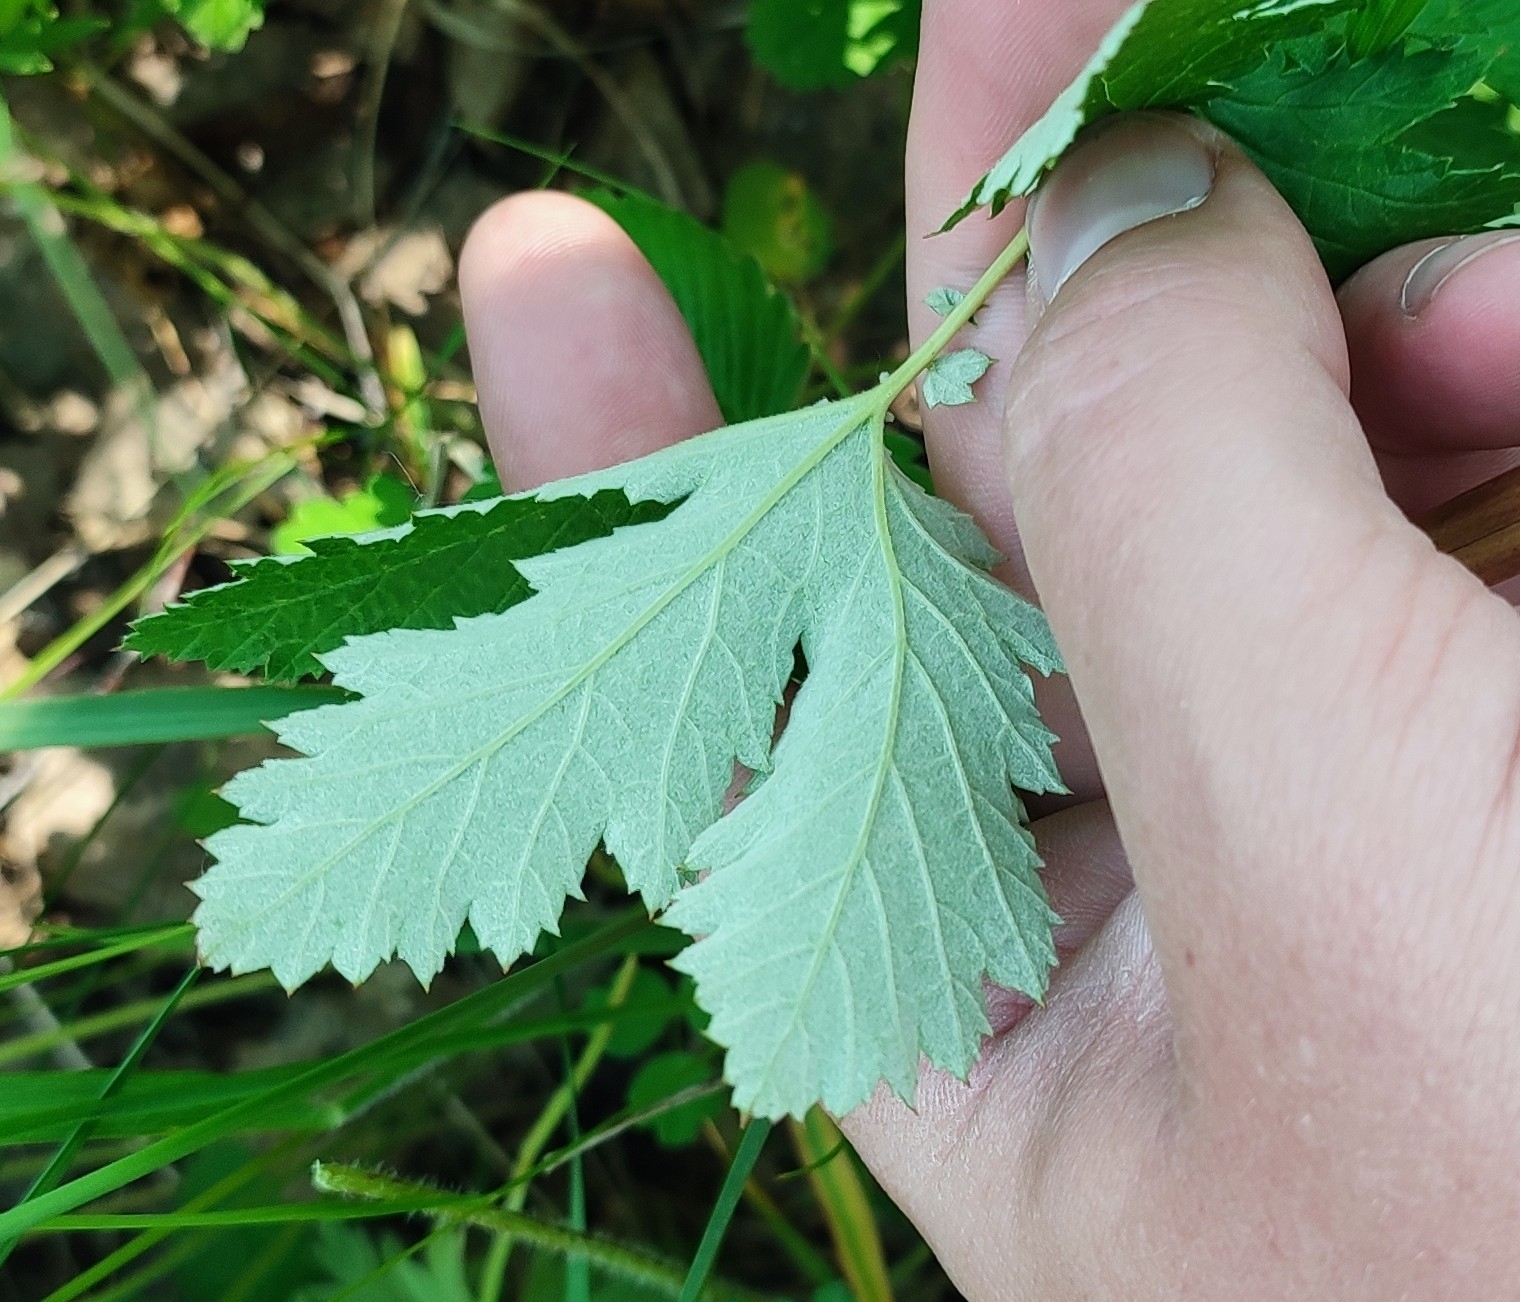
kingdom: Plantae
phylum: Tracheophyta
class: Magnoliopsida
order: Rosales
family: Rosaceae
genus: Filipendula
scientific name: Filipendula ulmaria
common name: Meadowsweet
